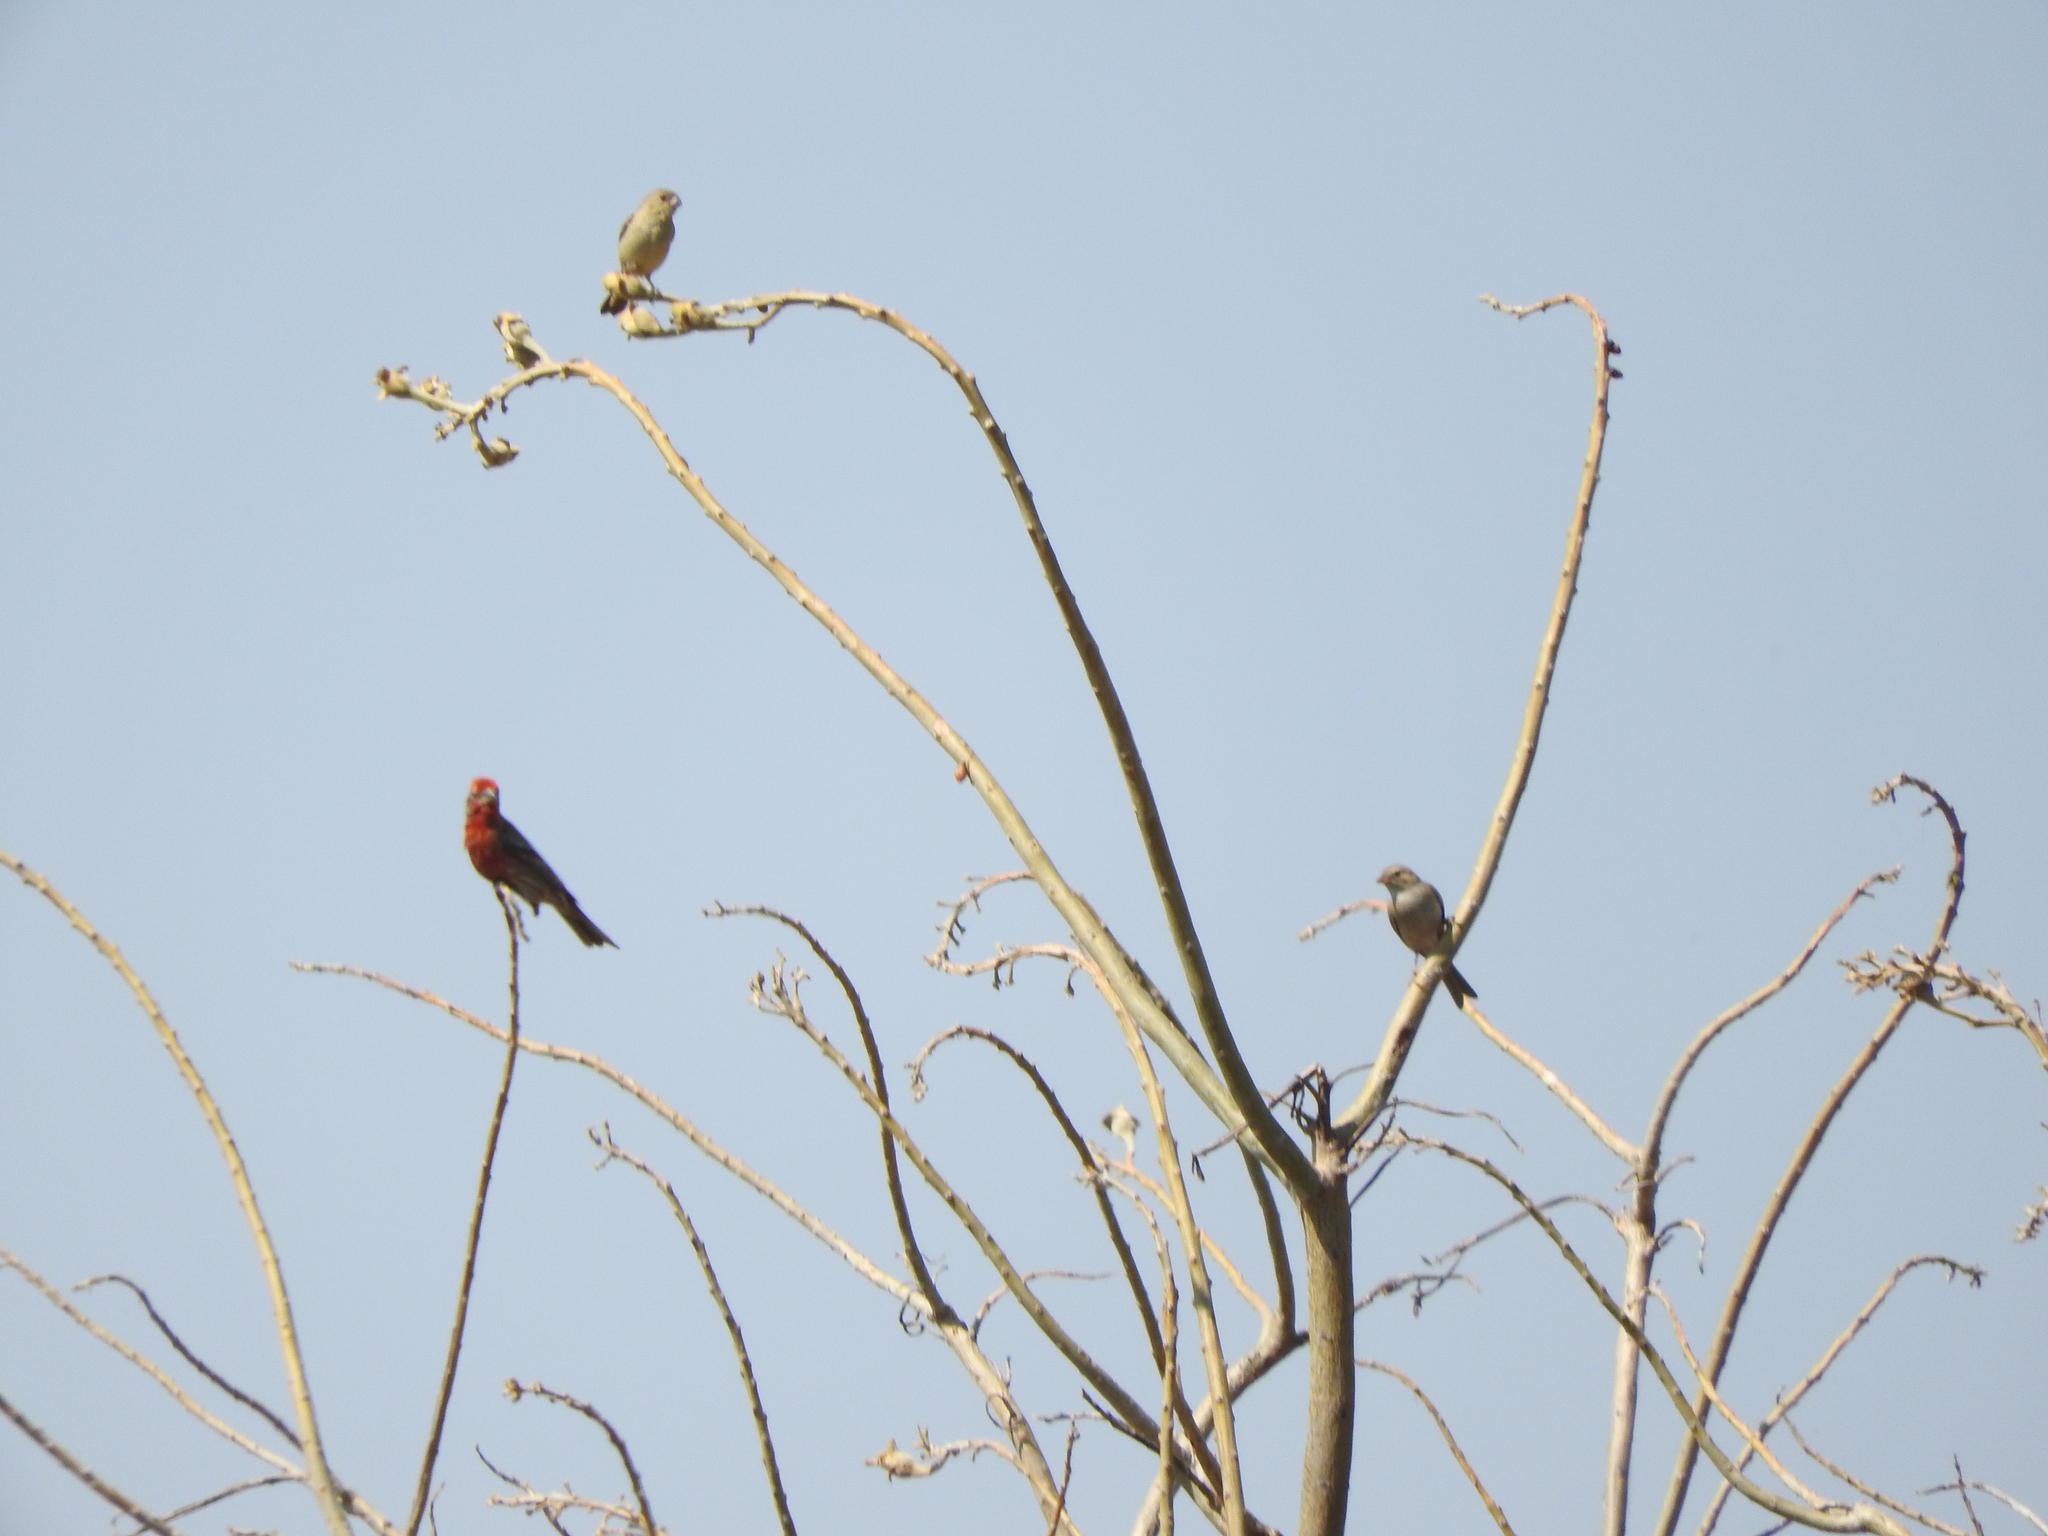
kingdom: Animalia
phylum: Chordata
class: Aves
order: Passeriformes
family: Fringillidae
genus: Haemorhous
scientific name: Haemorhous mexicanus
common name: House finch
